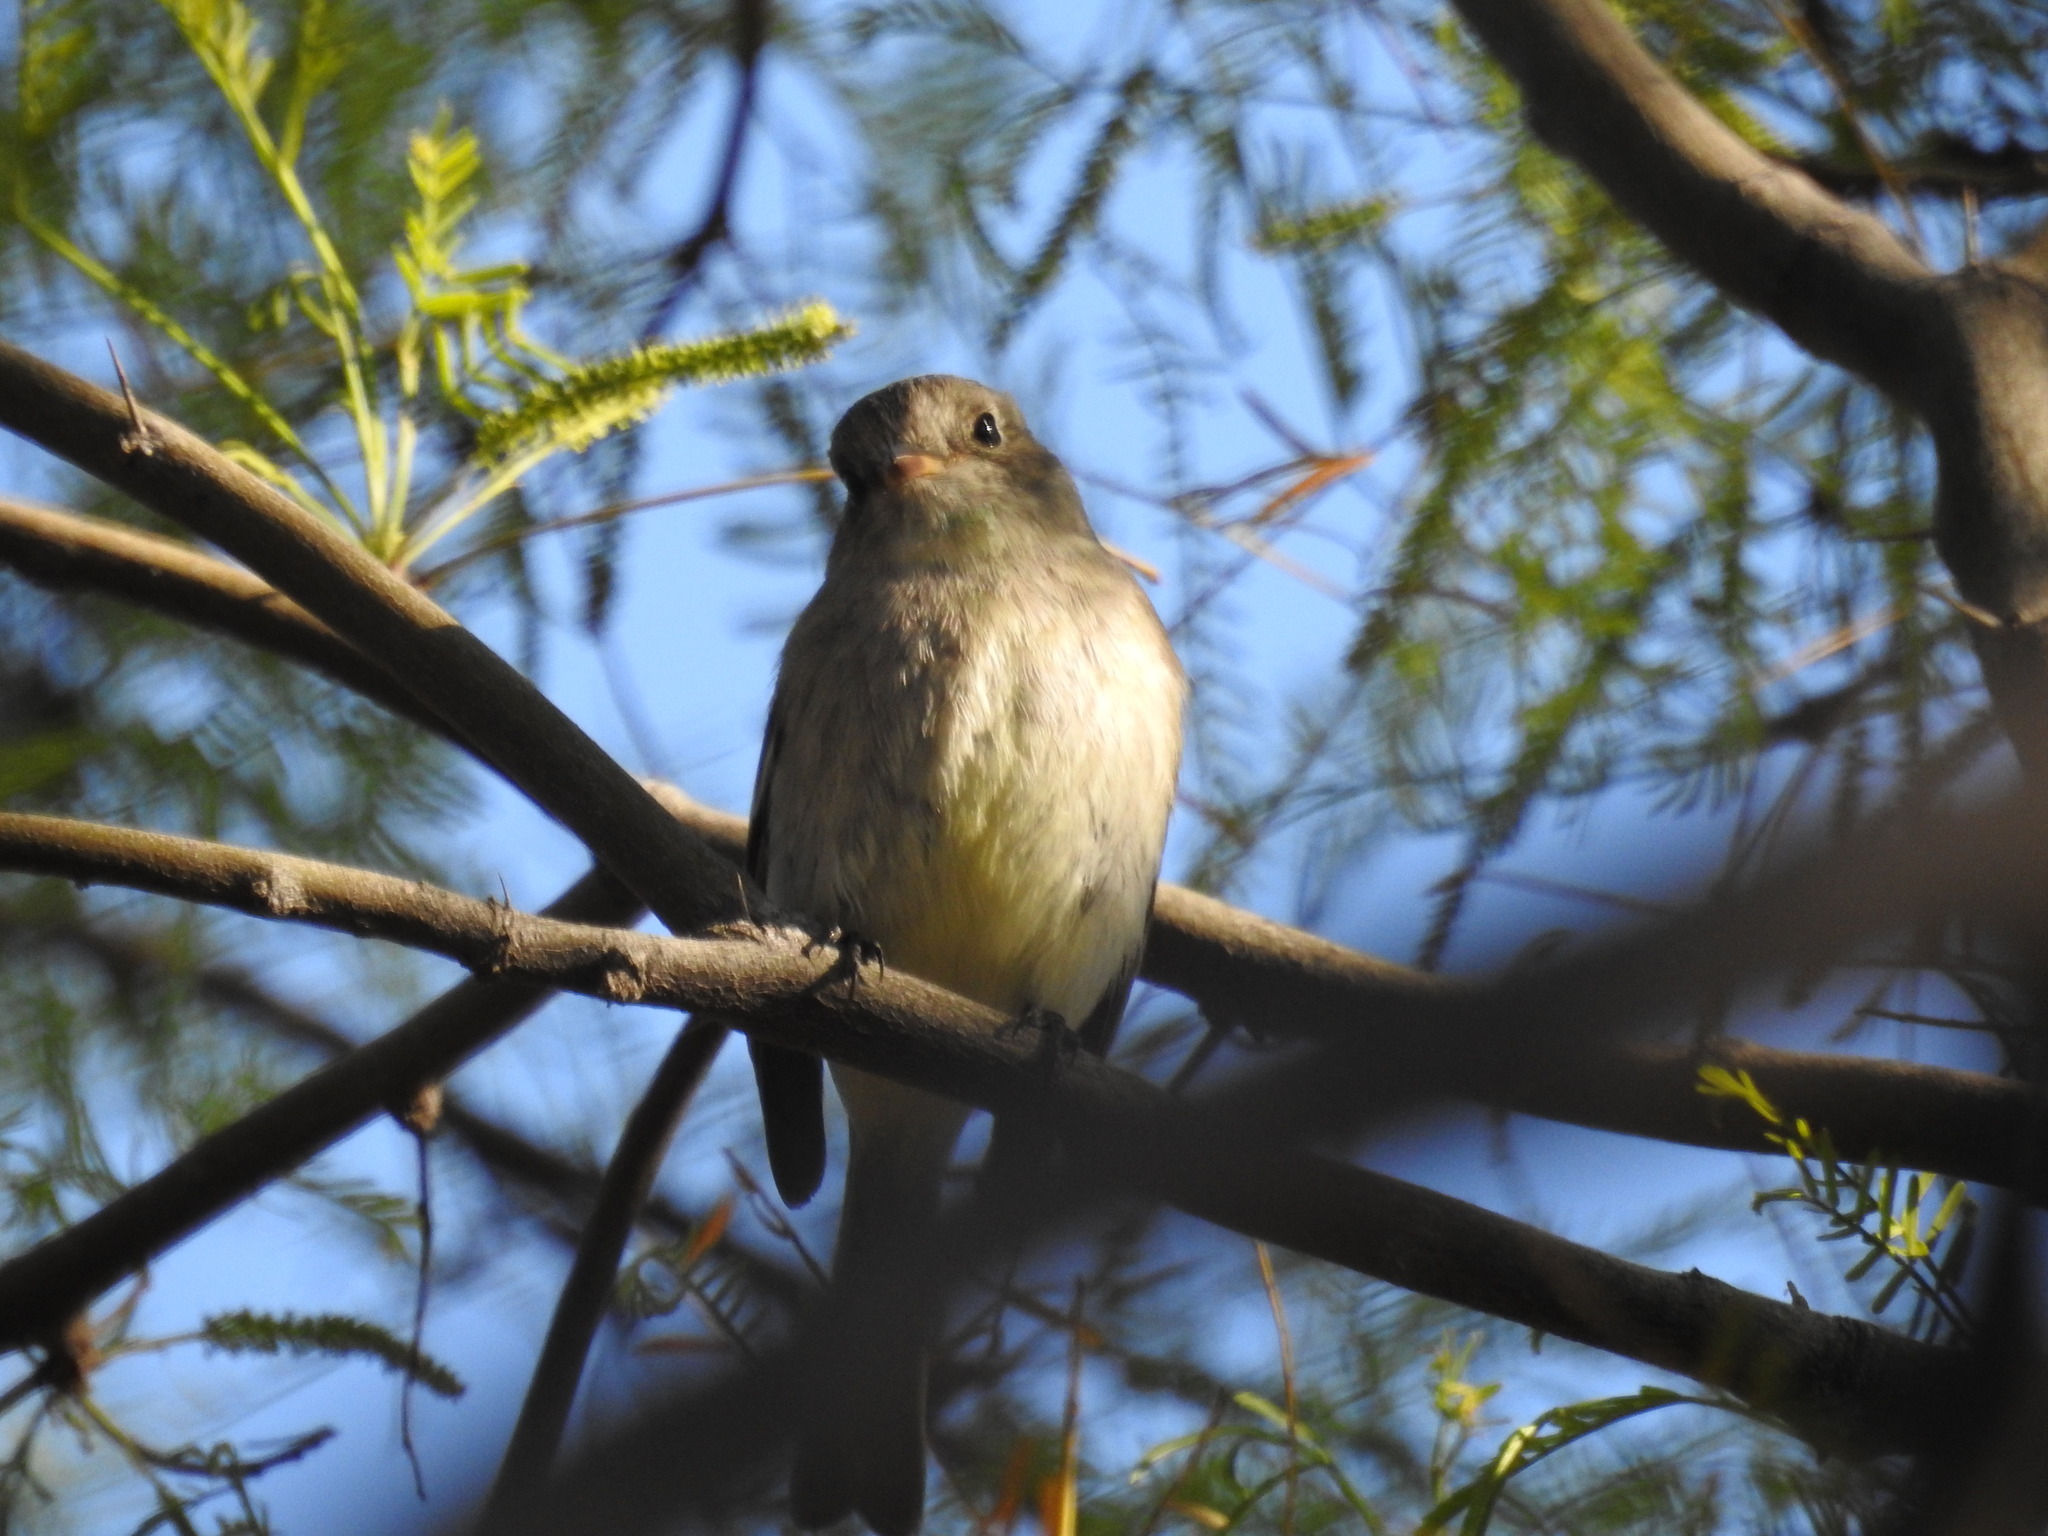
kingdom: Animalia
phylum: Chordata
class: Aves
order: Passeriformes
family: Tyrannidae
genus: Empidonax
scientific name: Empidonax wrightii
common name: Gray flycatcher
